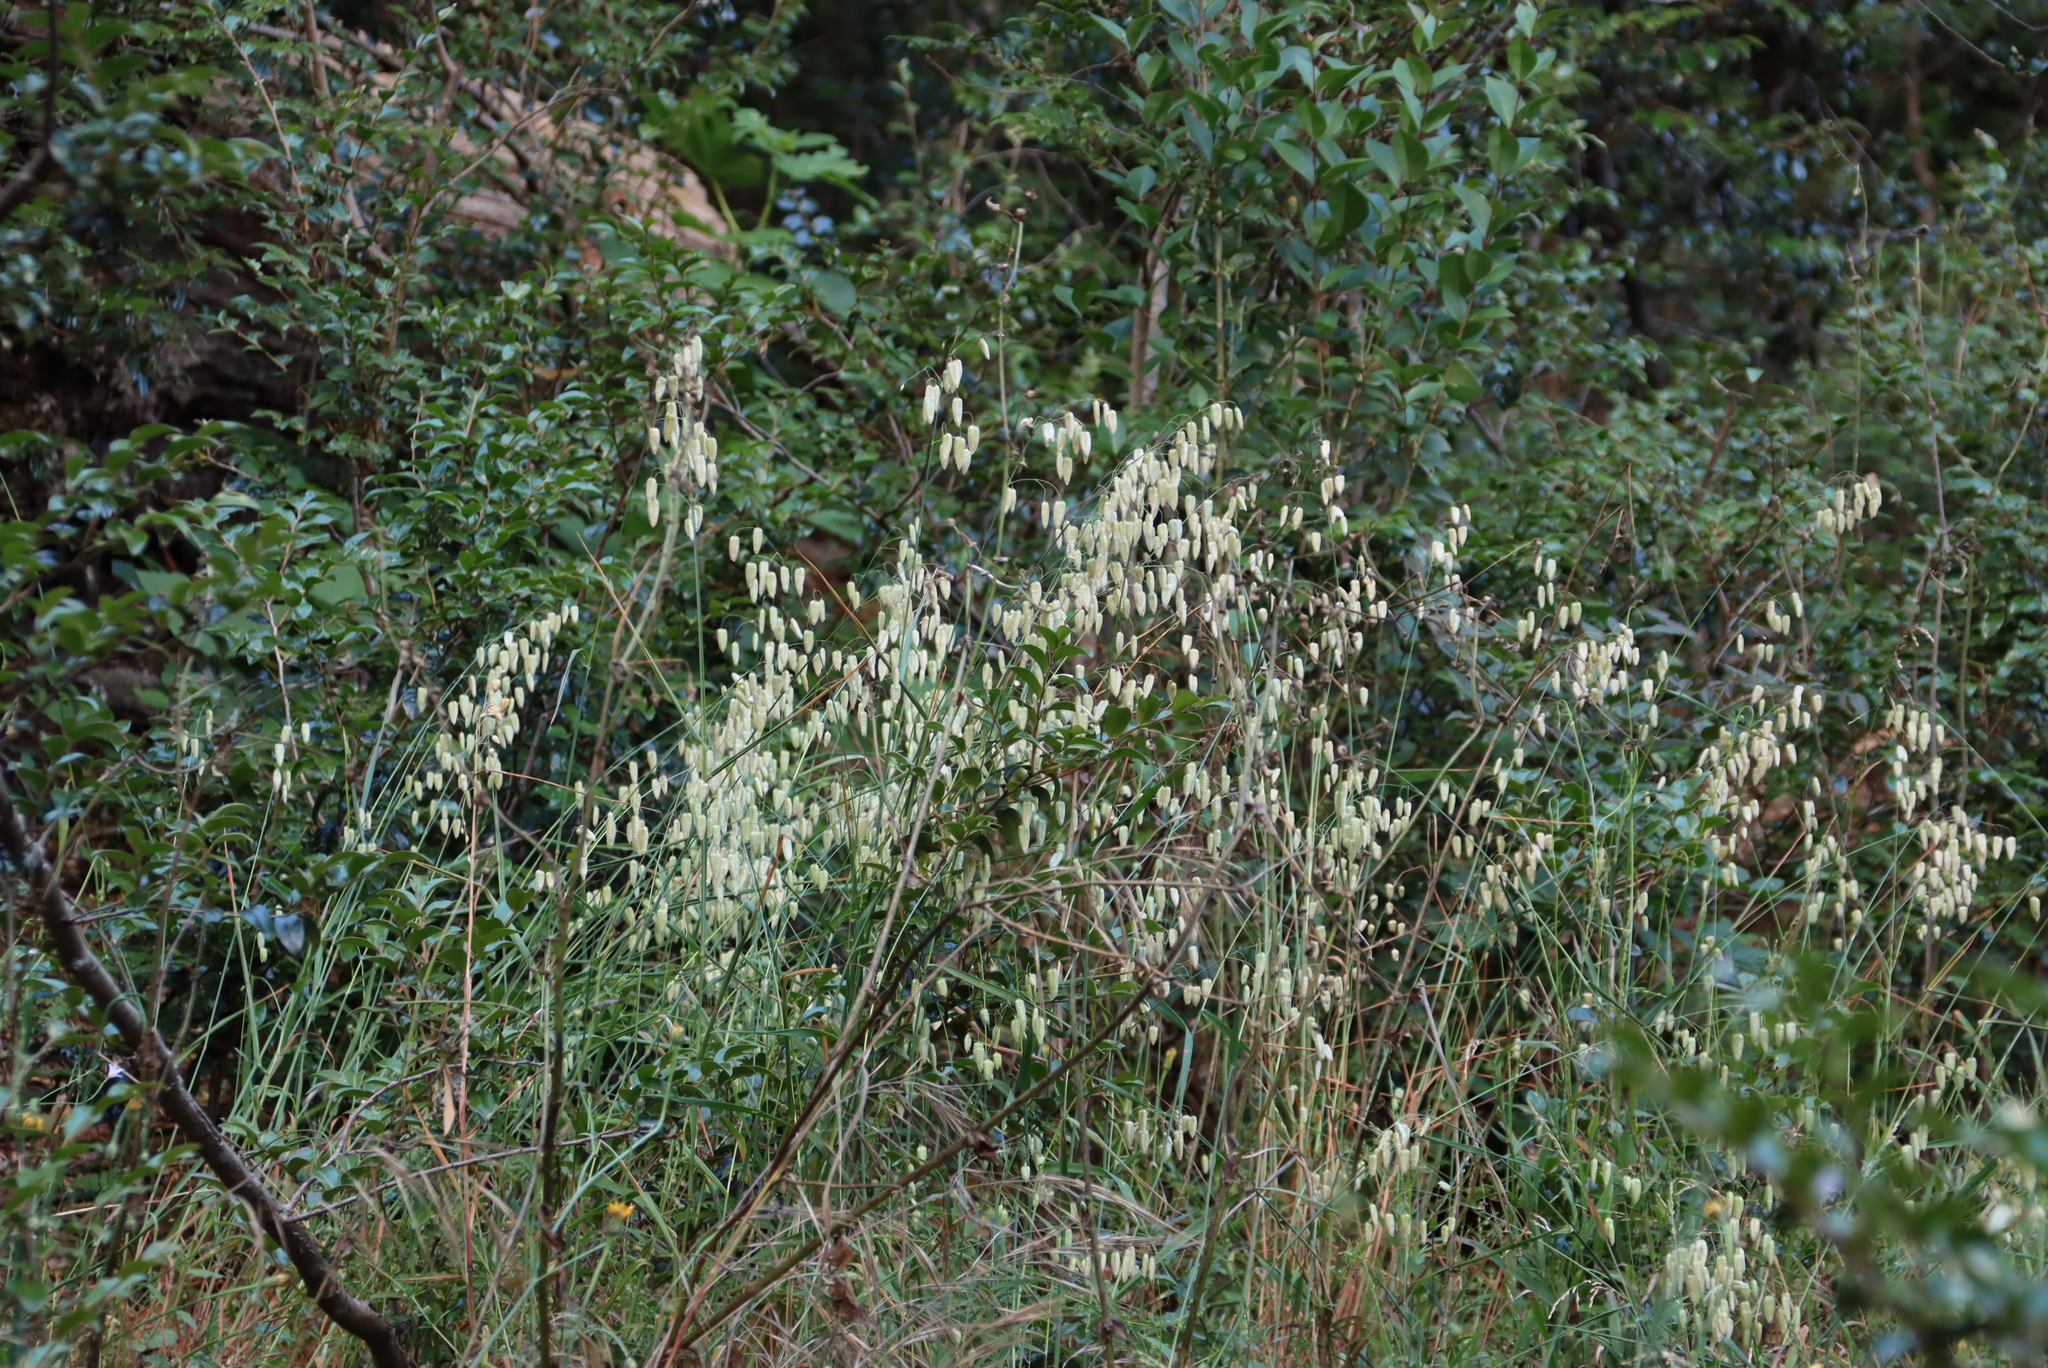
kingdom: Plantae
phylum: Tracheophyta
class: Liliopsida
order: Poales
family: Poaceae
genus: Briza
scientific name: Briza maxima
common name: Big quakinggrass
